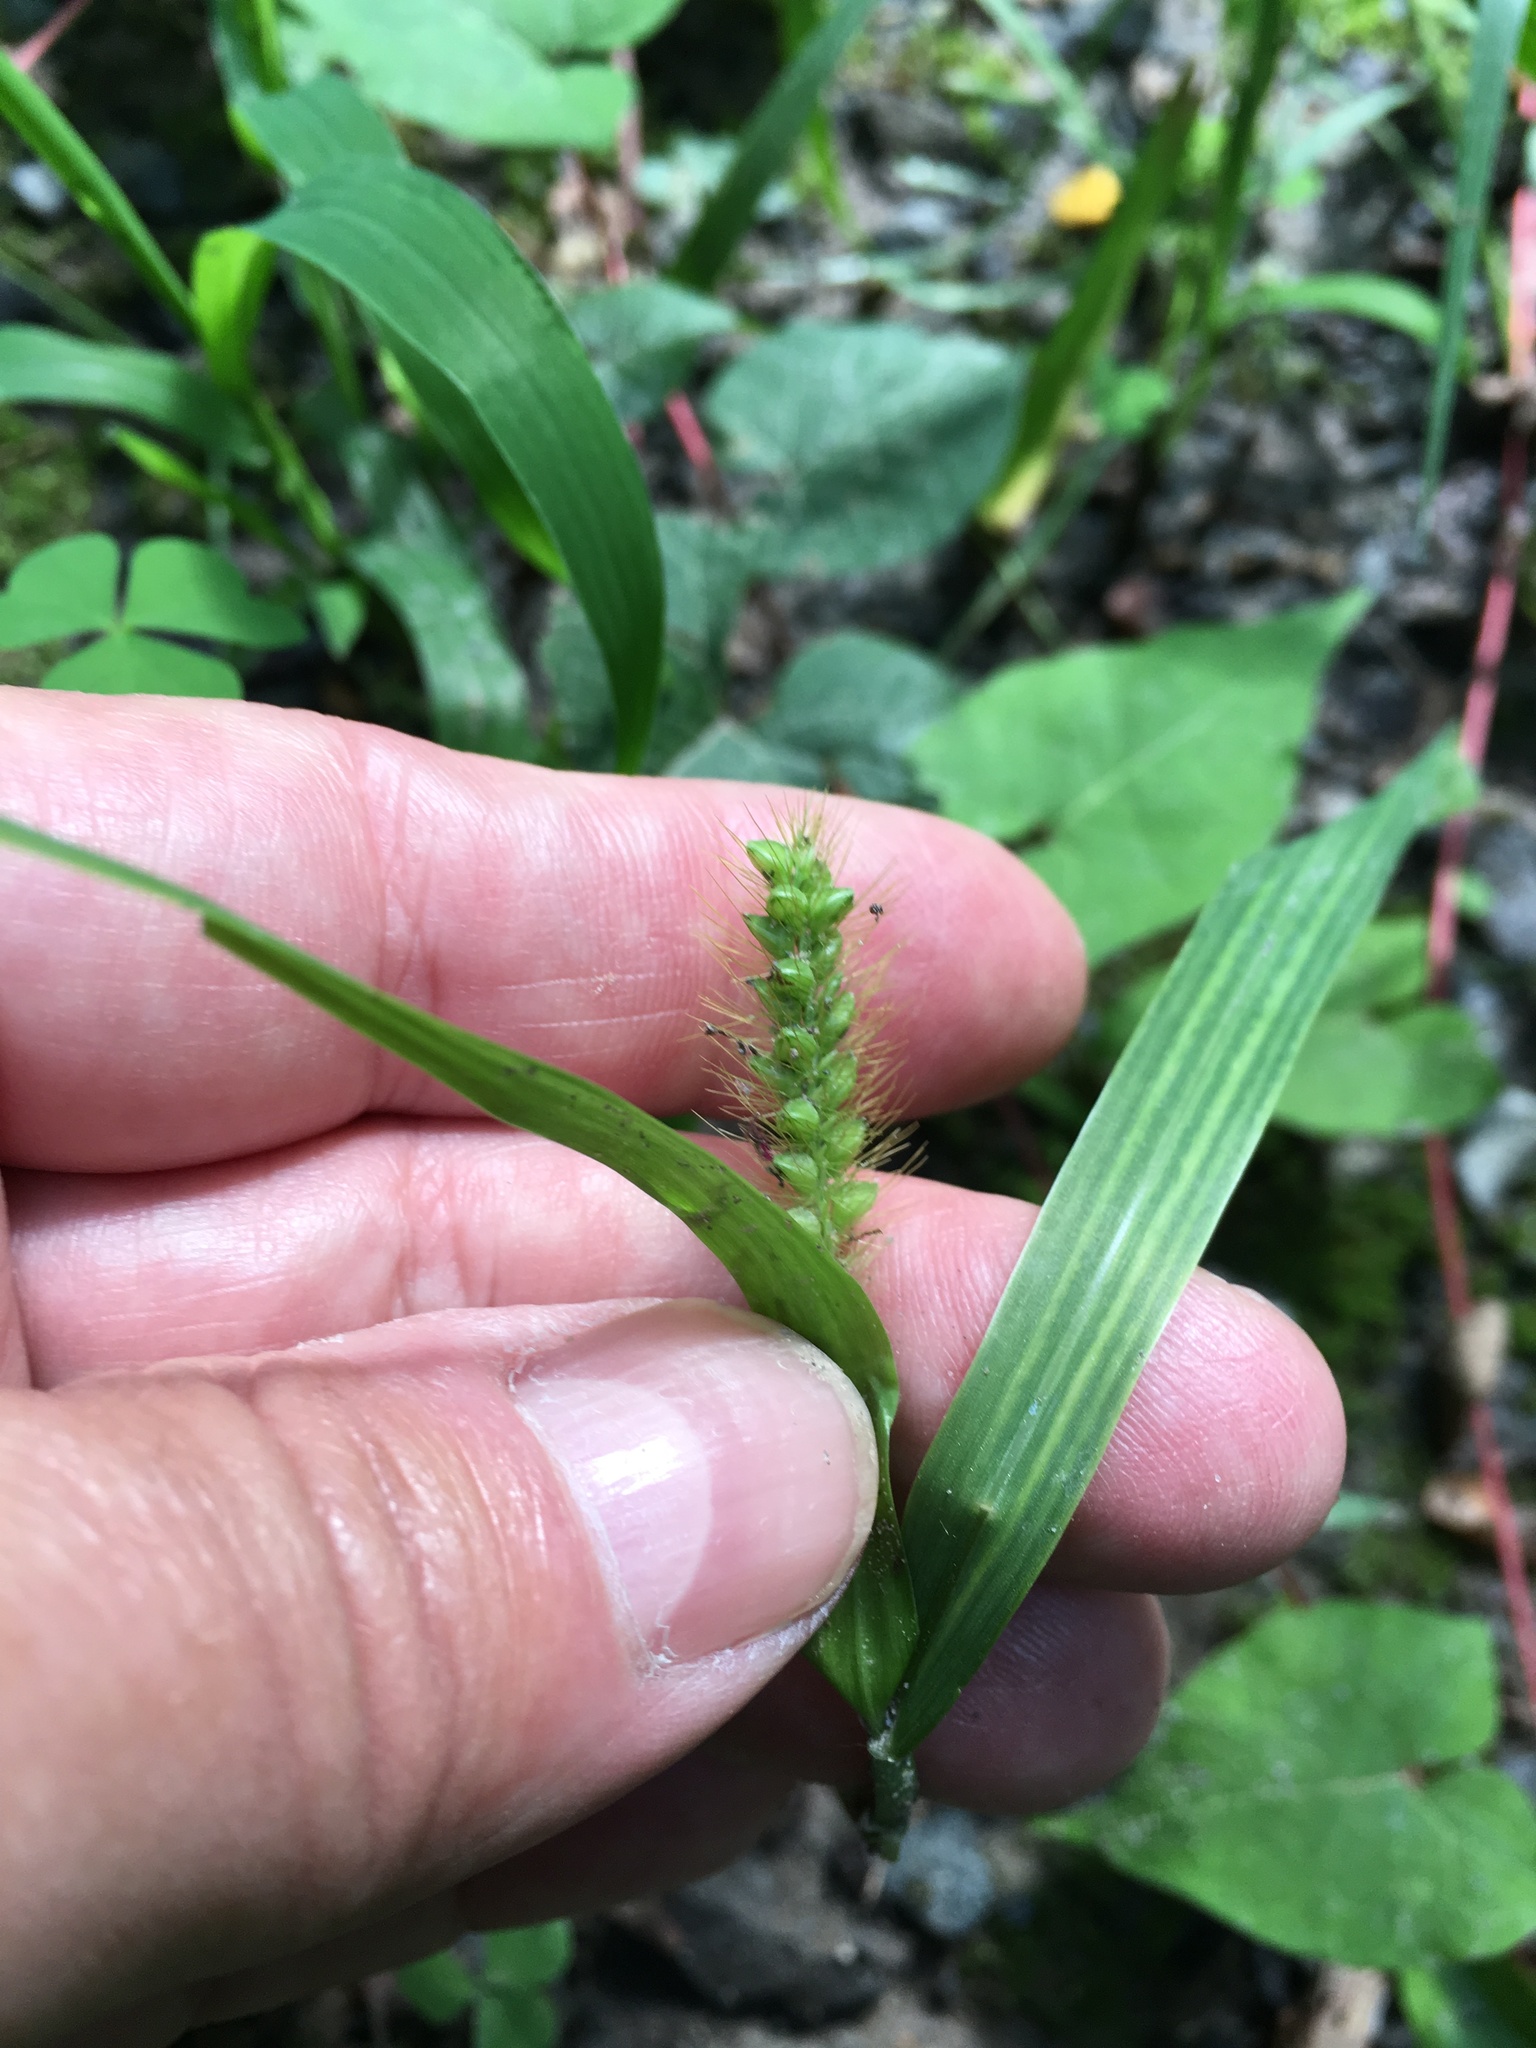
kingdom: Plantae
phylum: Tracheophyta
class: Liliopsida
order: Poales
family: Poaceae
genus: Setaria
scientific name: Setaria pumila
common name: Yellow bristle-grass
